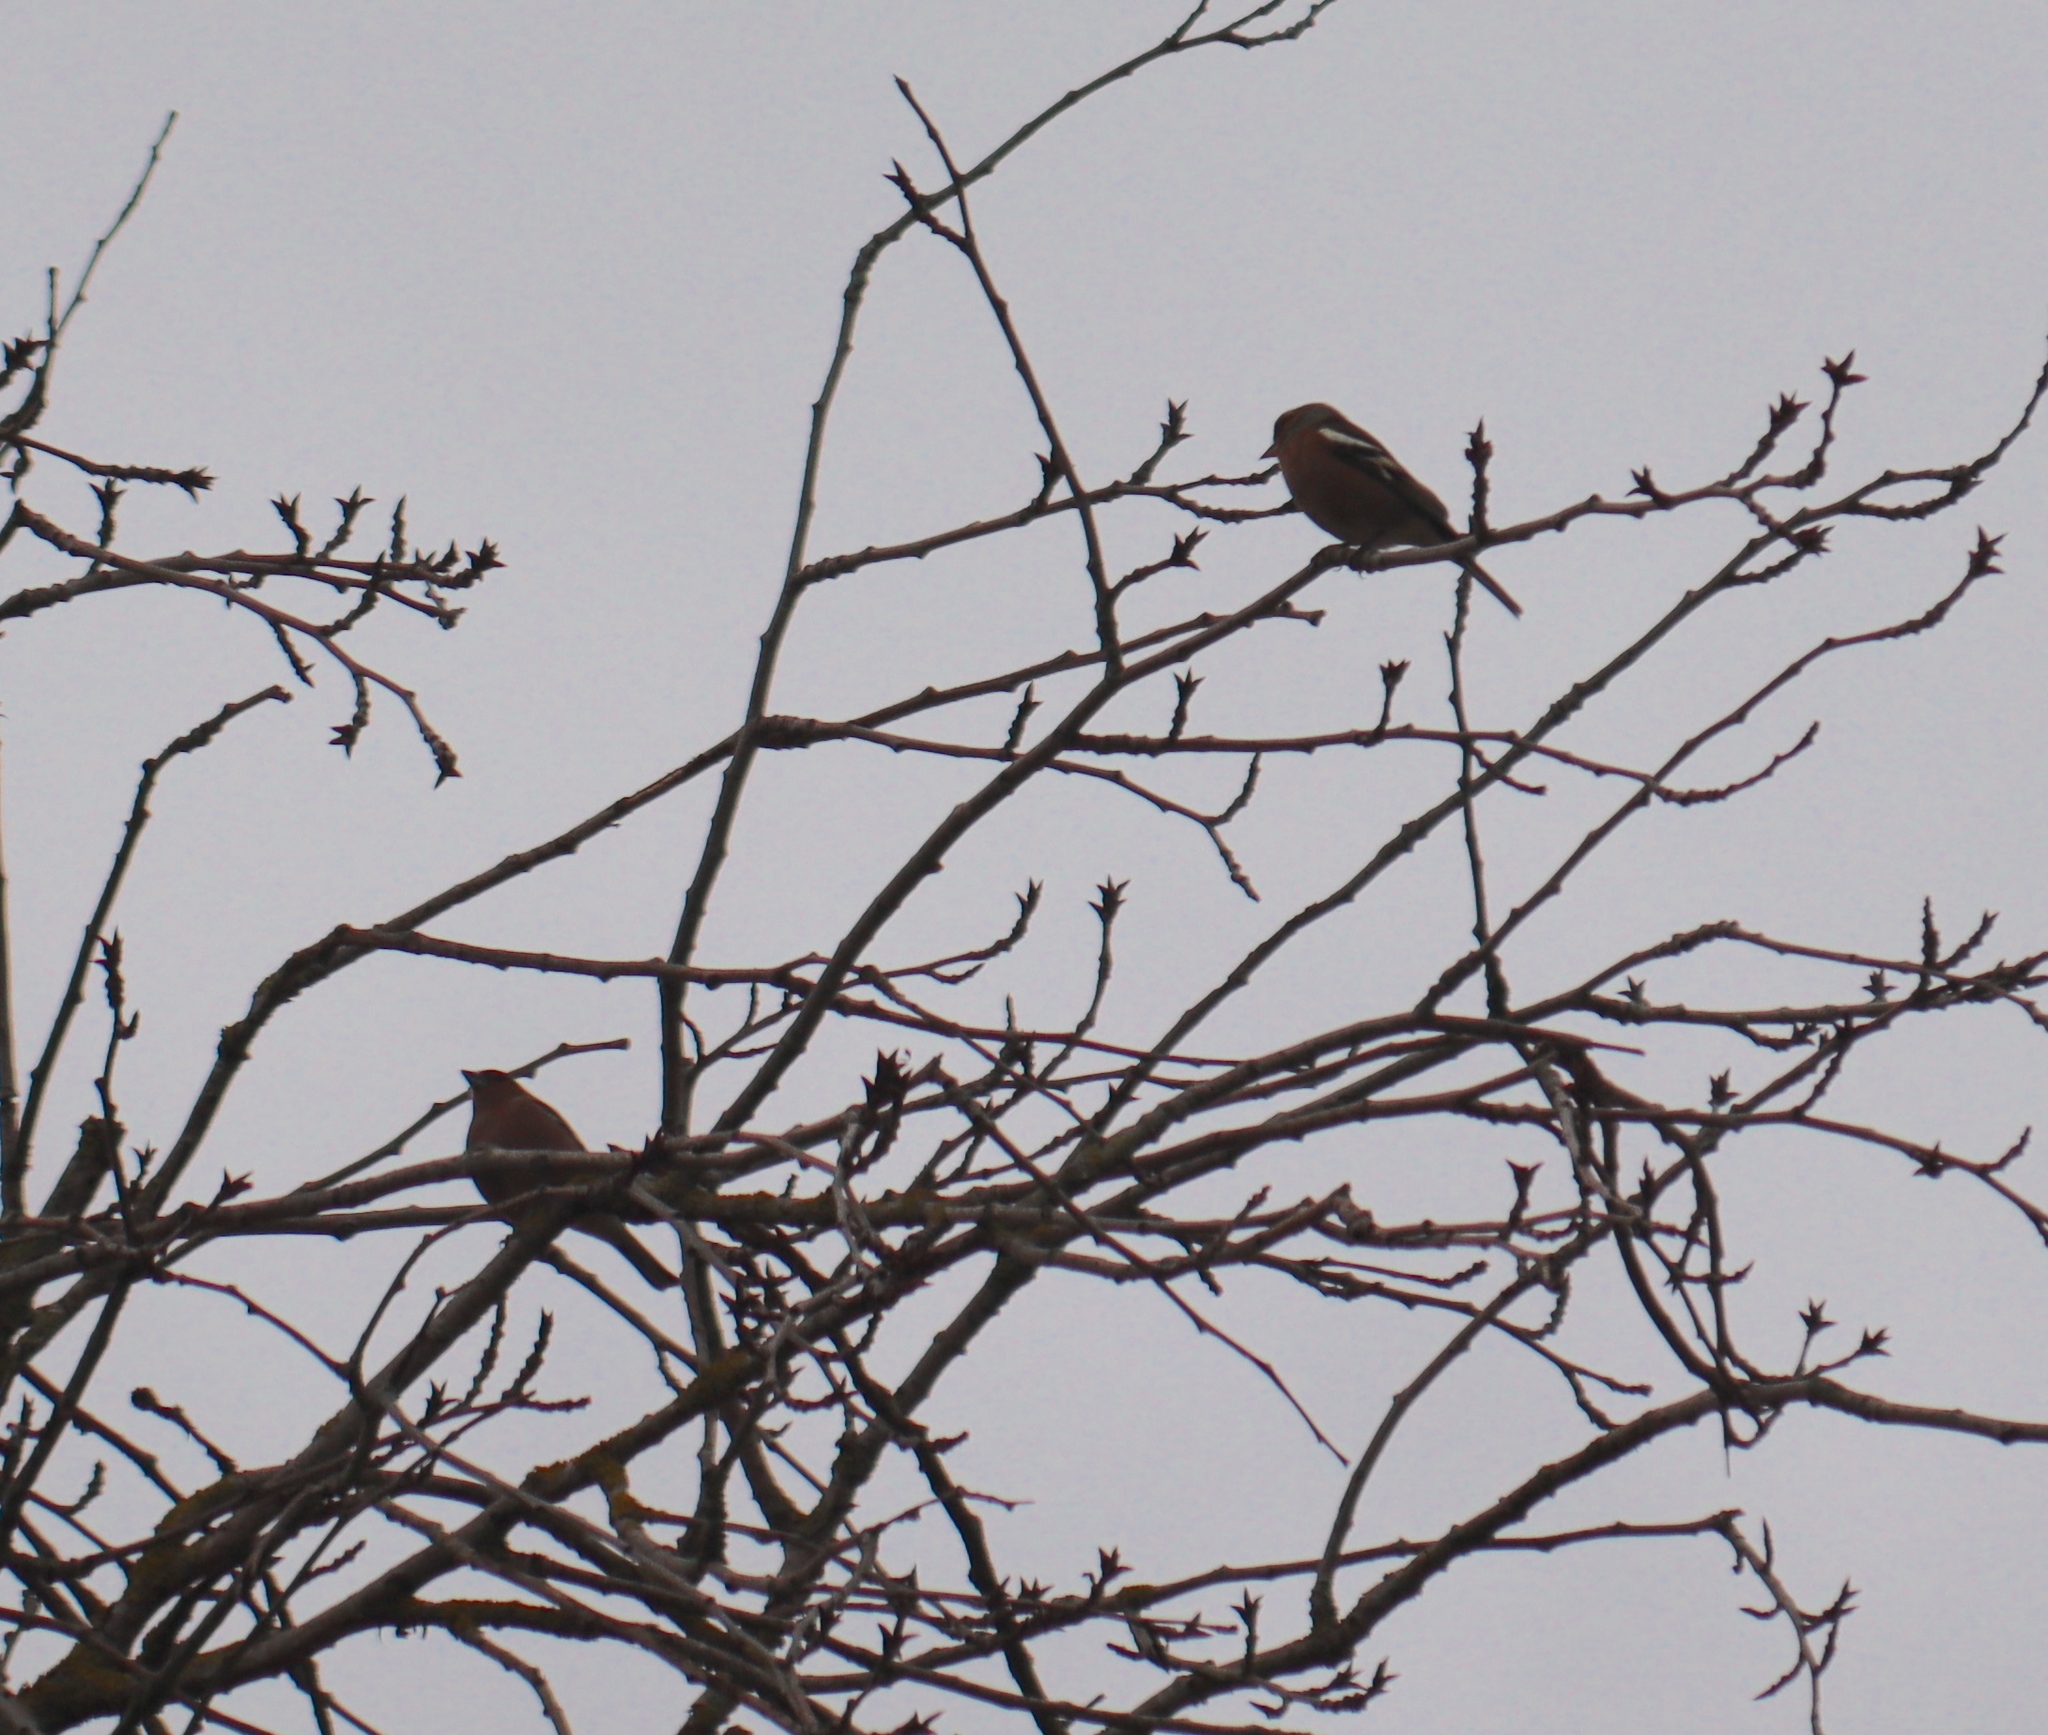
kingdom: Animalia
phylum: Chordata
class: Aves
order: Passeriformes
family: Fringillidae
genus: Fringilla
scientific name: Fringilla coelebs
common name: Common chaffinch
